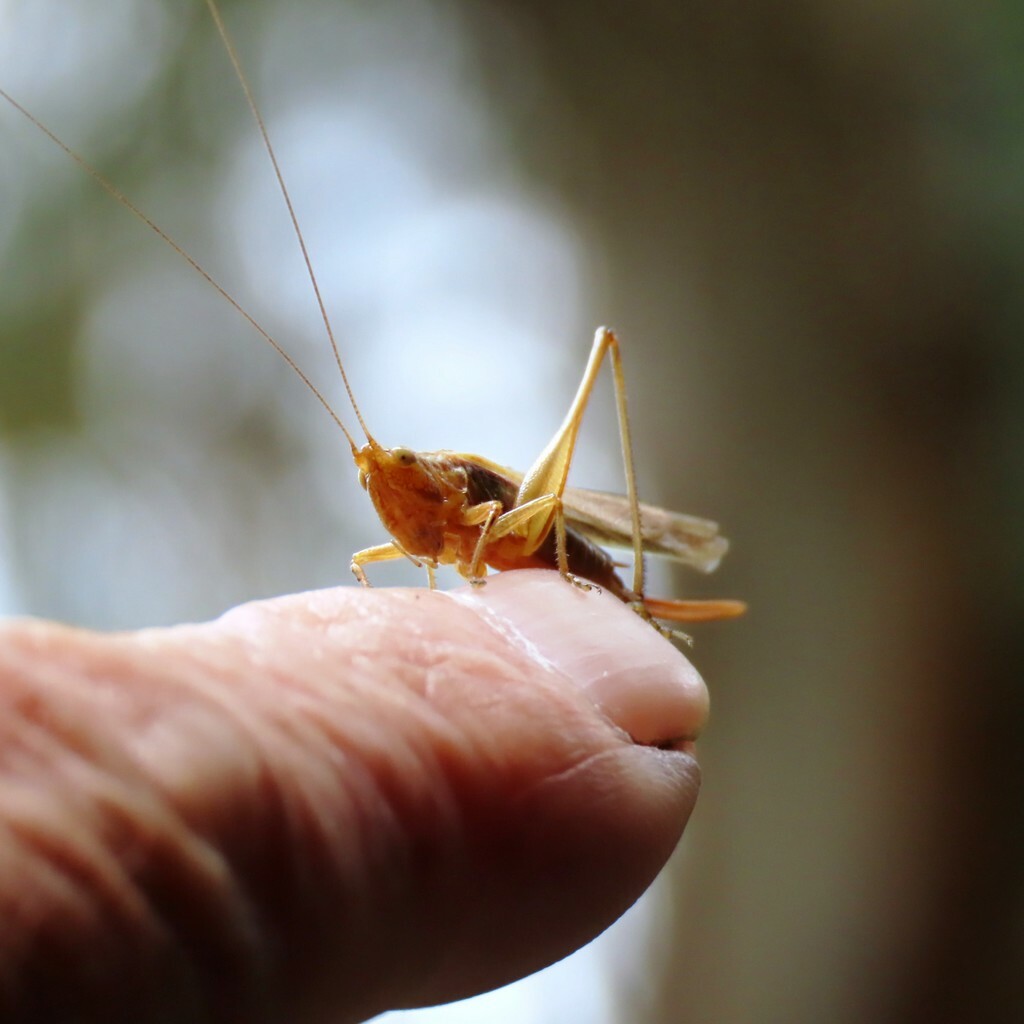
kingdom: Animalia
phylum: Arthropoda
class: Insecta
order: Orthoptera
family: Tettigoniidae
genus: Conocephalus
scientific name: Conocephalus albescens
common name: Whitish meadow katydid
